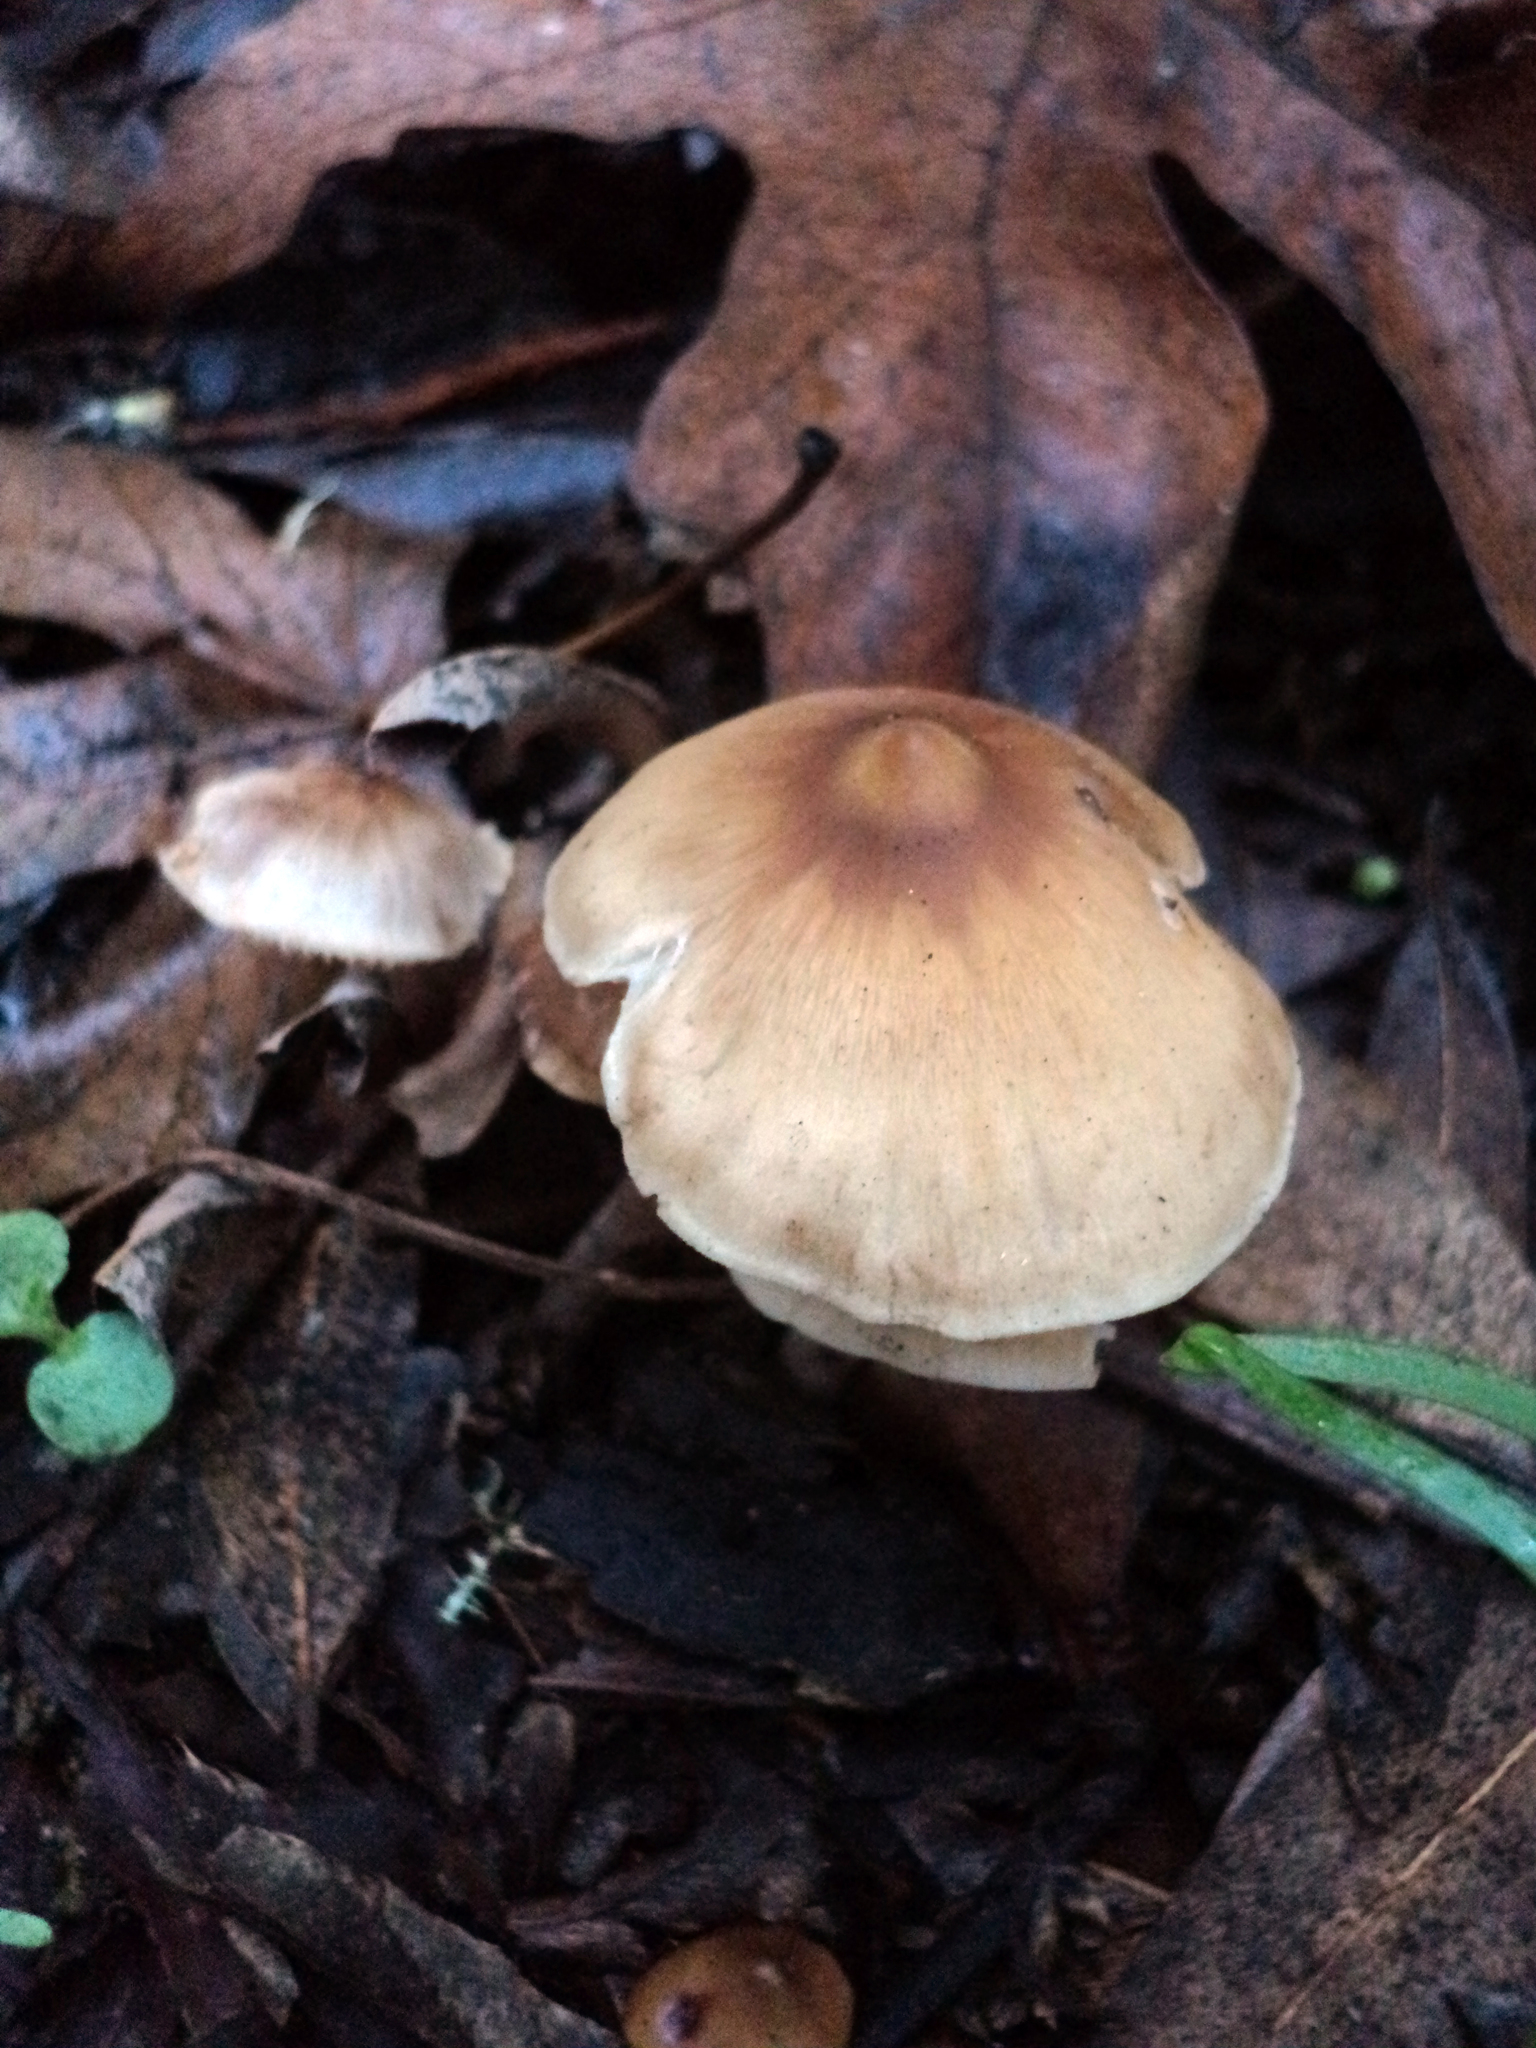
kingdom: Fungi
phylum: Basidiomycota
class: Agaricomycetes
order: Agaricales
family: Tricholomataceae
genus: Caulorhiza
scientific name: Caulorhiza umbonata
